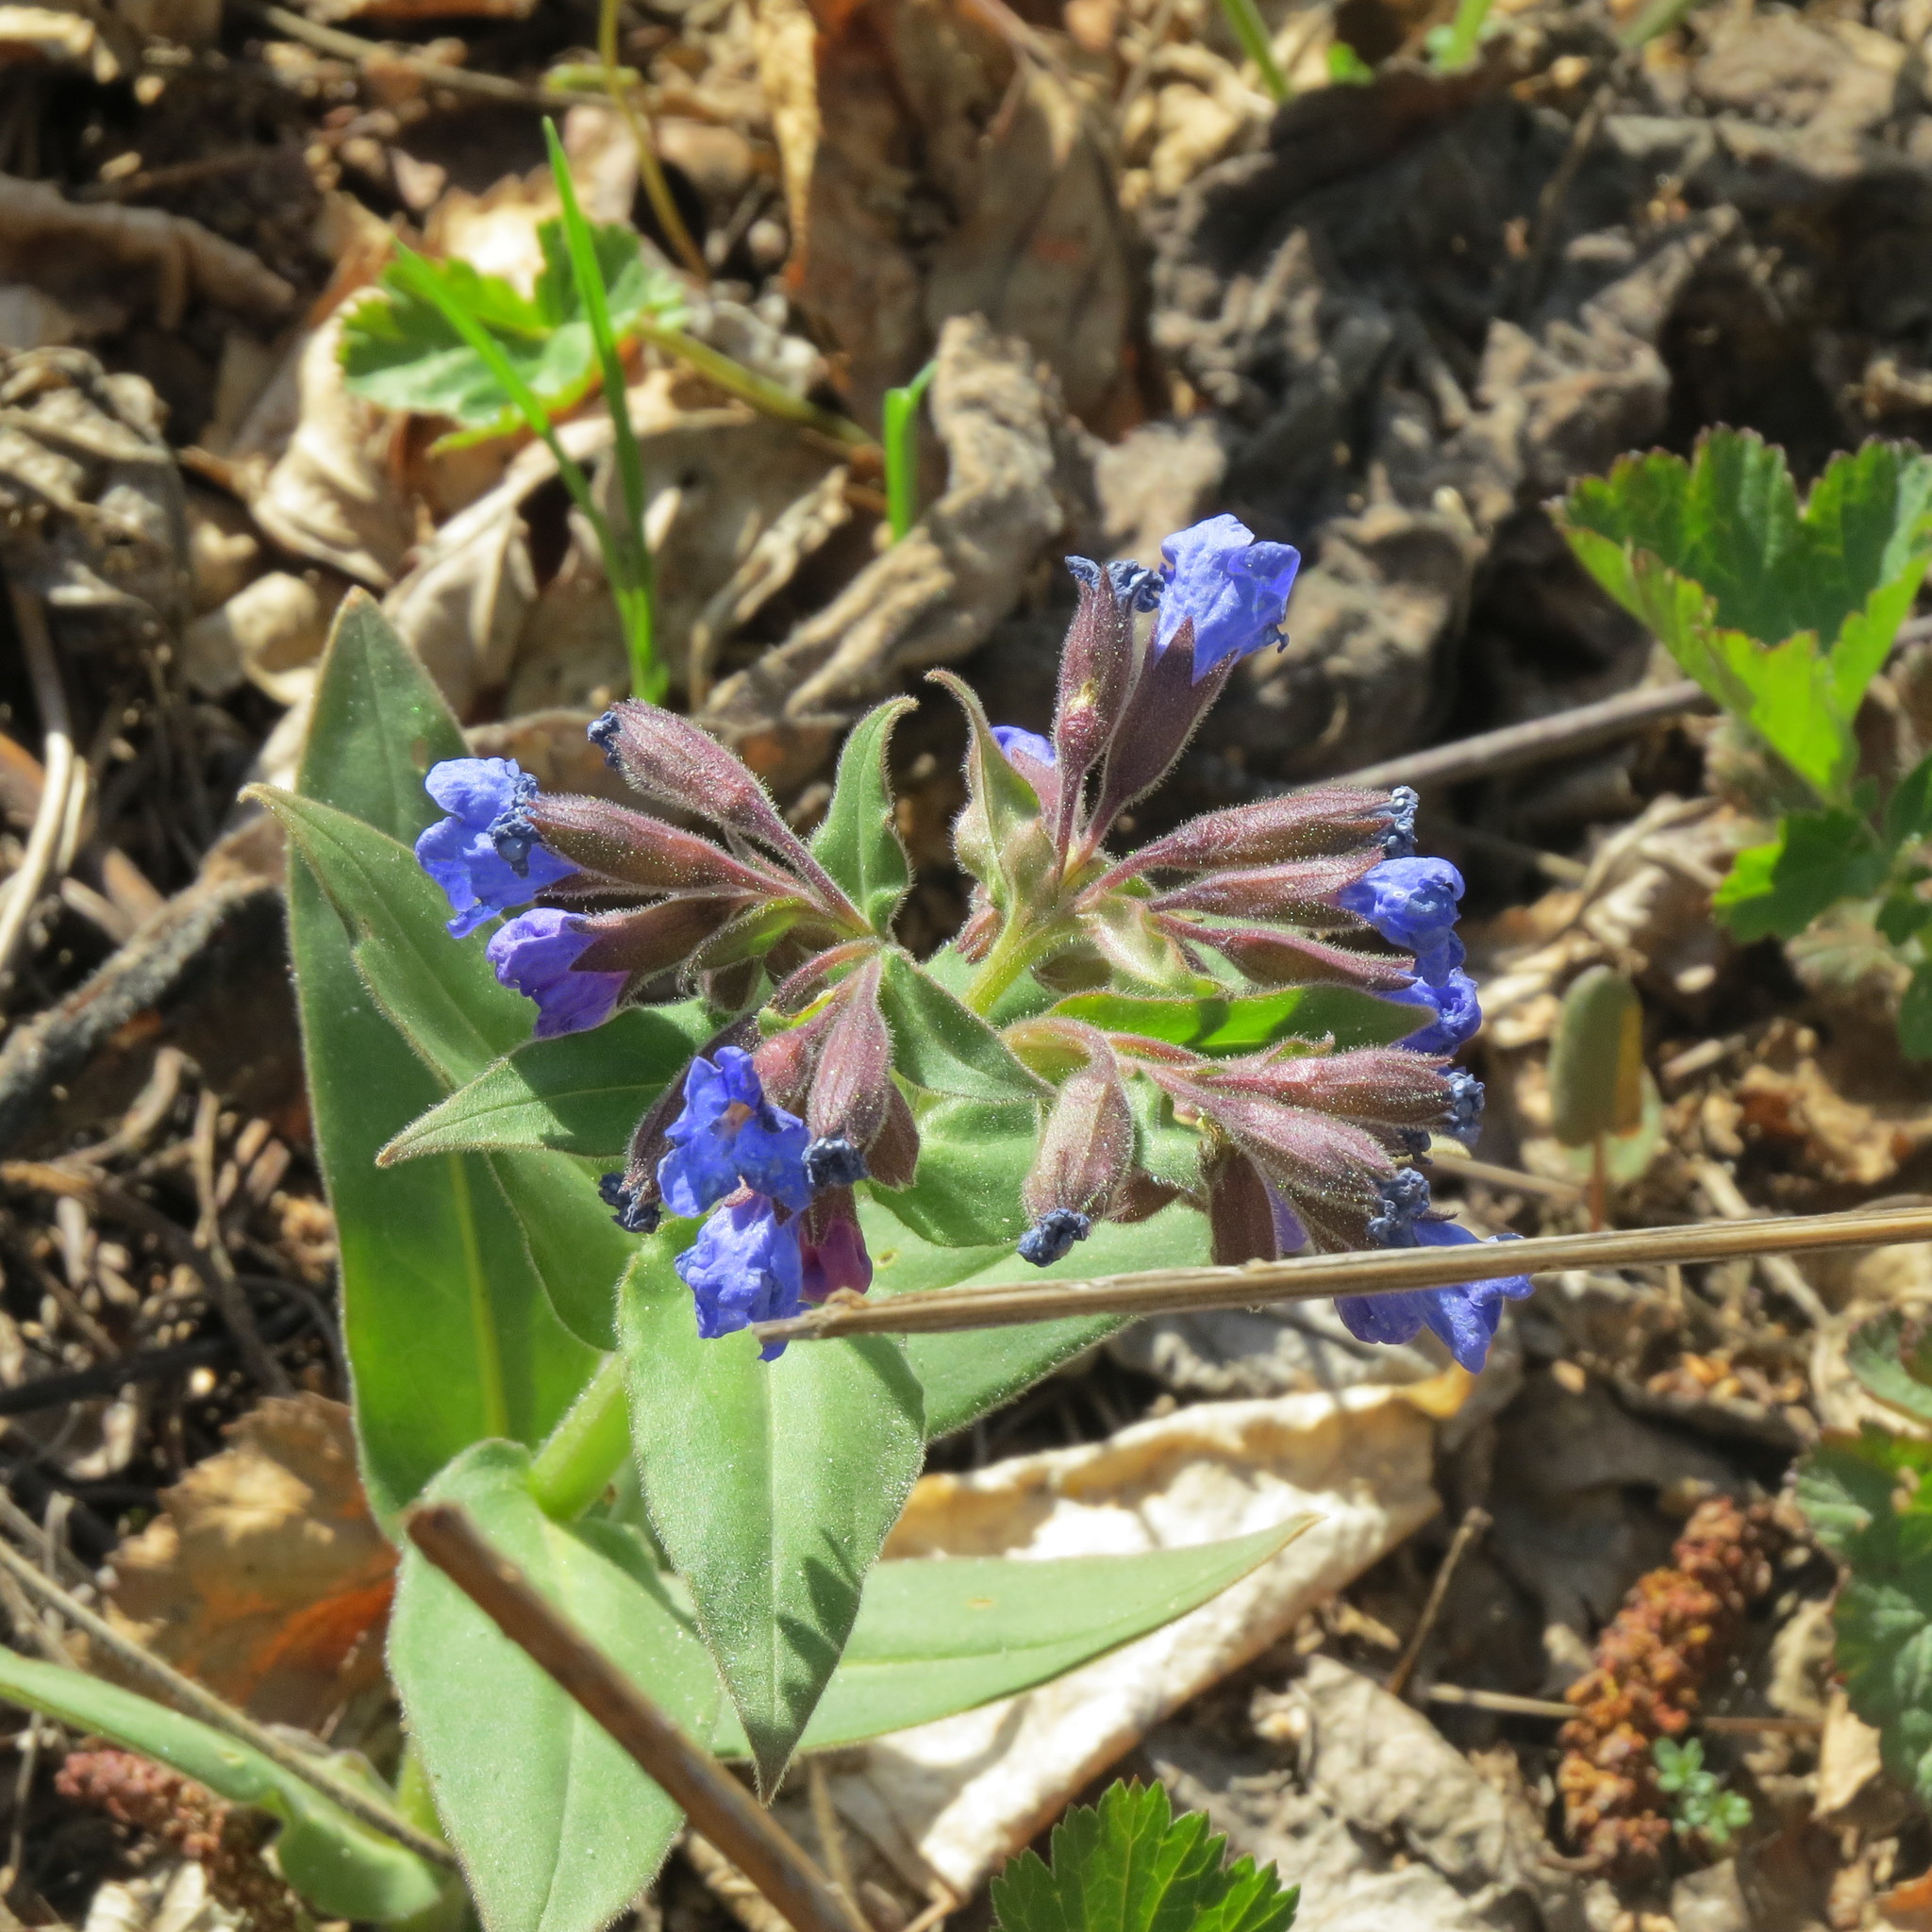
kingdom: Plantae
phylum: Tracheophyta
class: Magnoliopsida
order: Boraginales
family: Boraginaceae
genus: Pulmonaria
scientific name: Pulmonaria mollis
